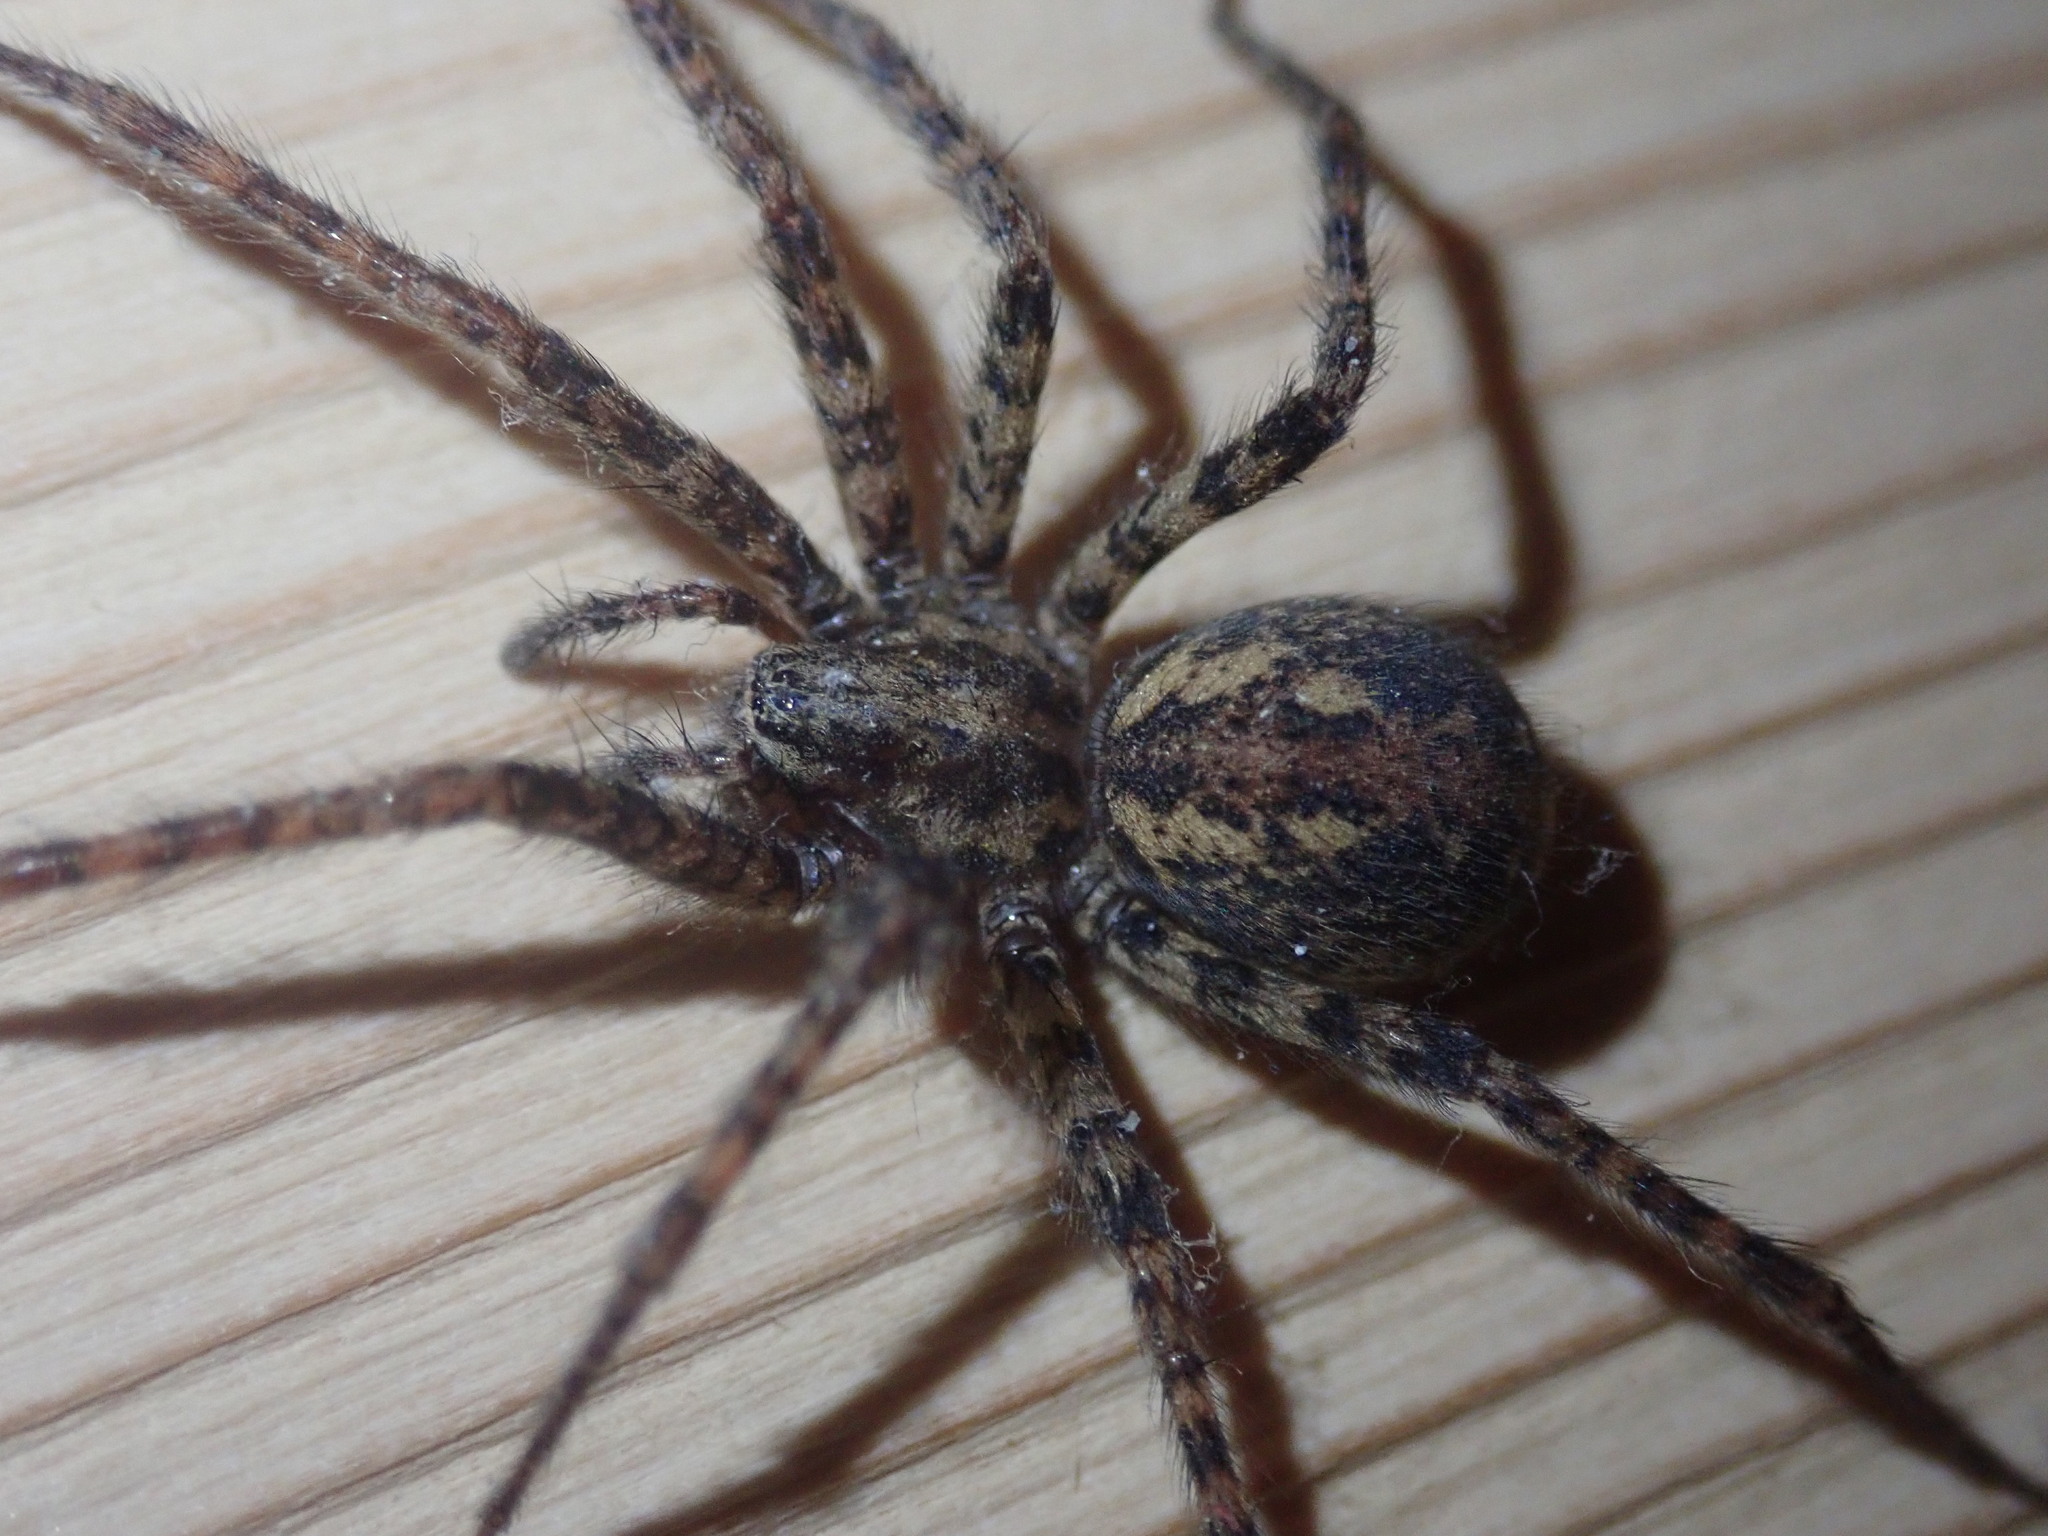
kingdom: Animalia
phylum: Arthropoda
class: Arachnida
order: Araneae
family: Agelenidae
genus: Tegenaria
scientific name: Tegenaria ferruginea
